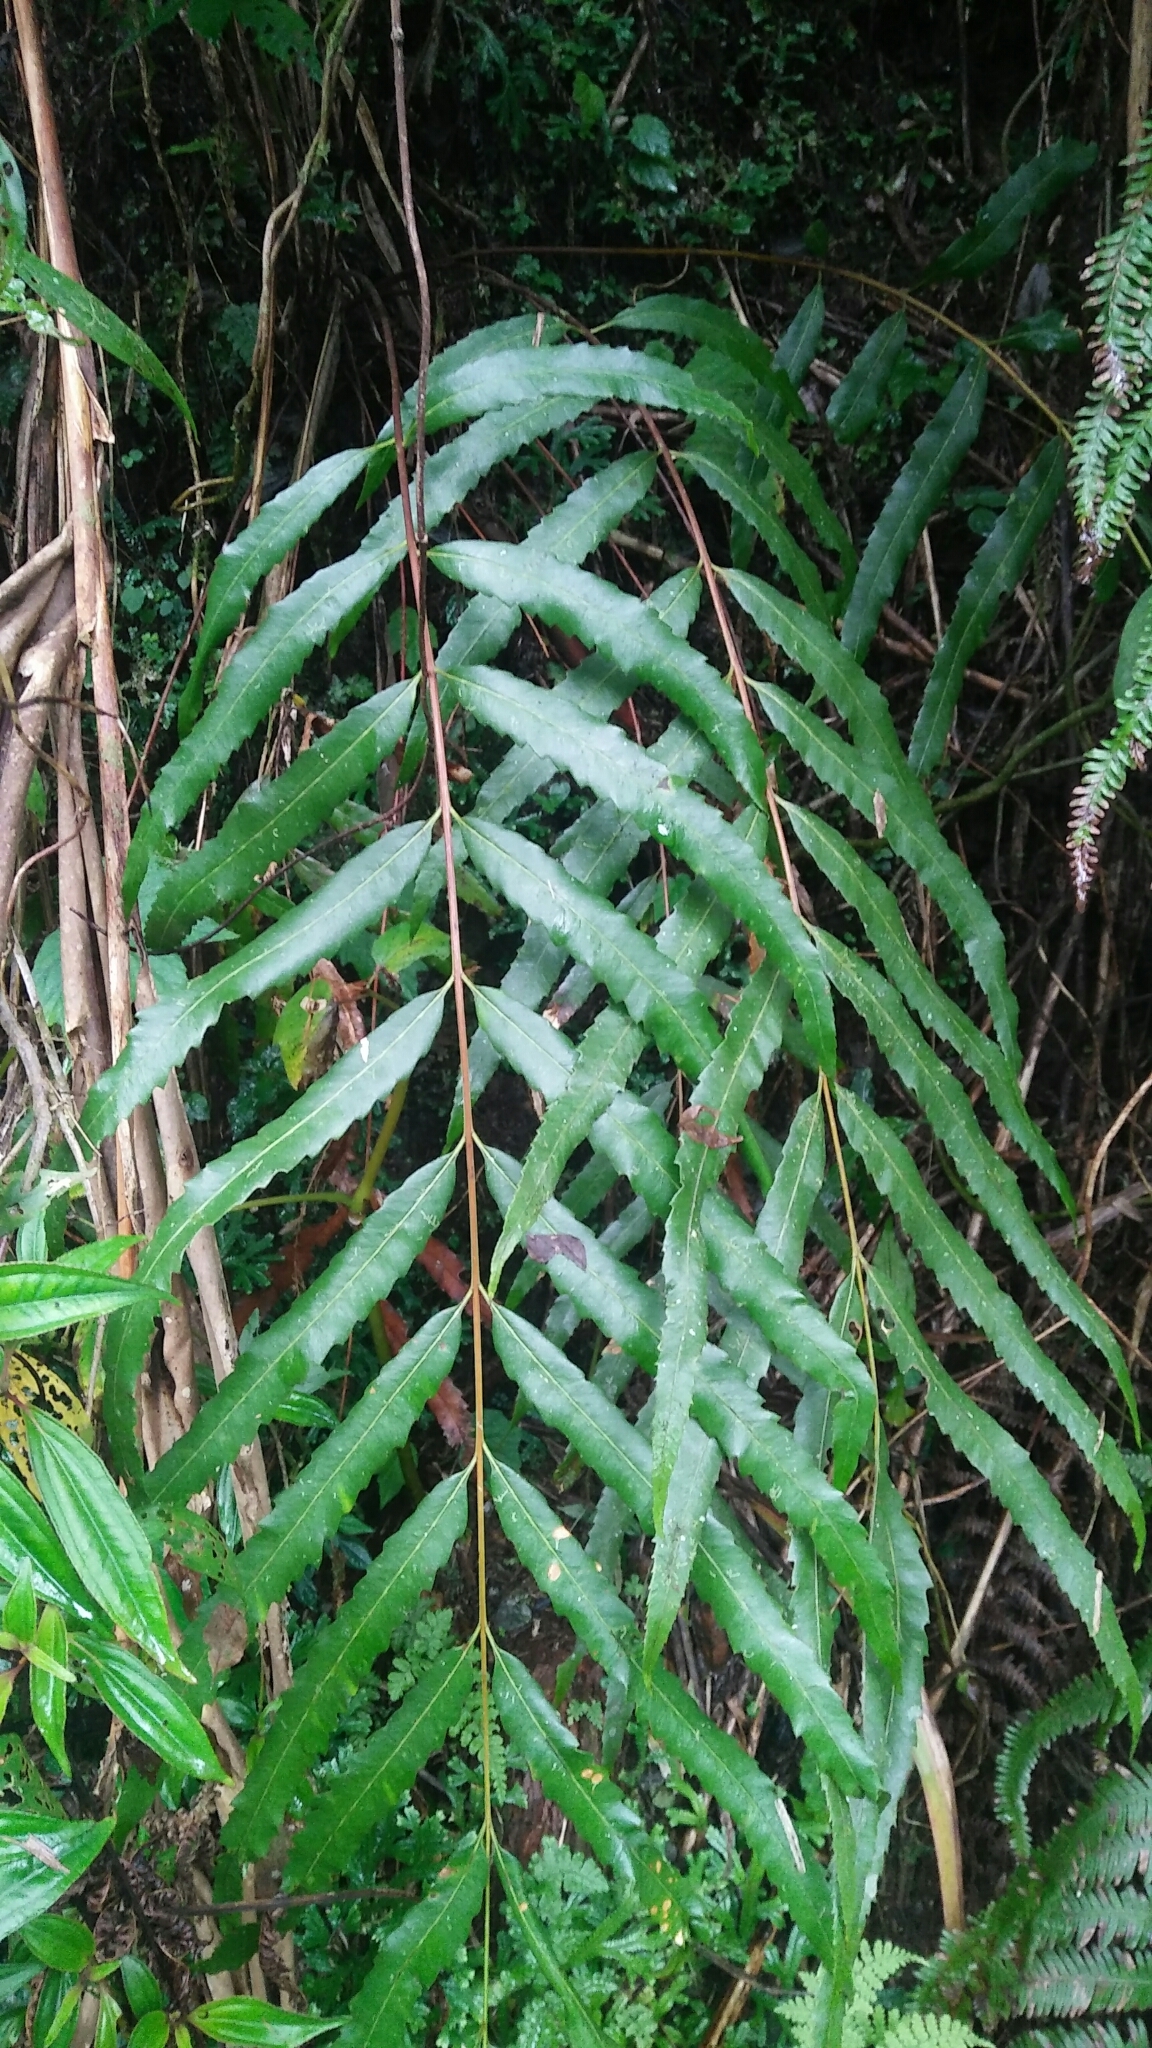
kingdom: Plantae
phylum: Tracheophyta
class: Polypodiopsida
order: Osmundales
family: Osmundaceae
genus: Plenasium
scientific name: Plenasium banksiifolium
